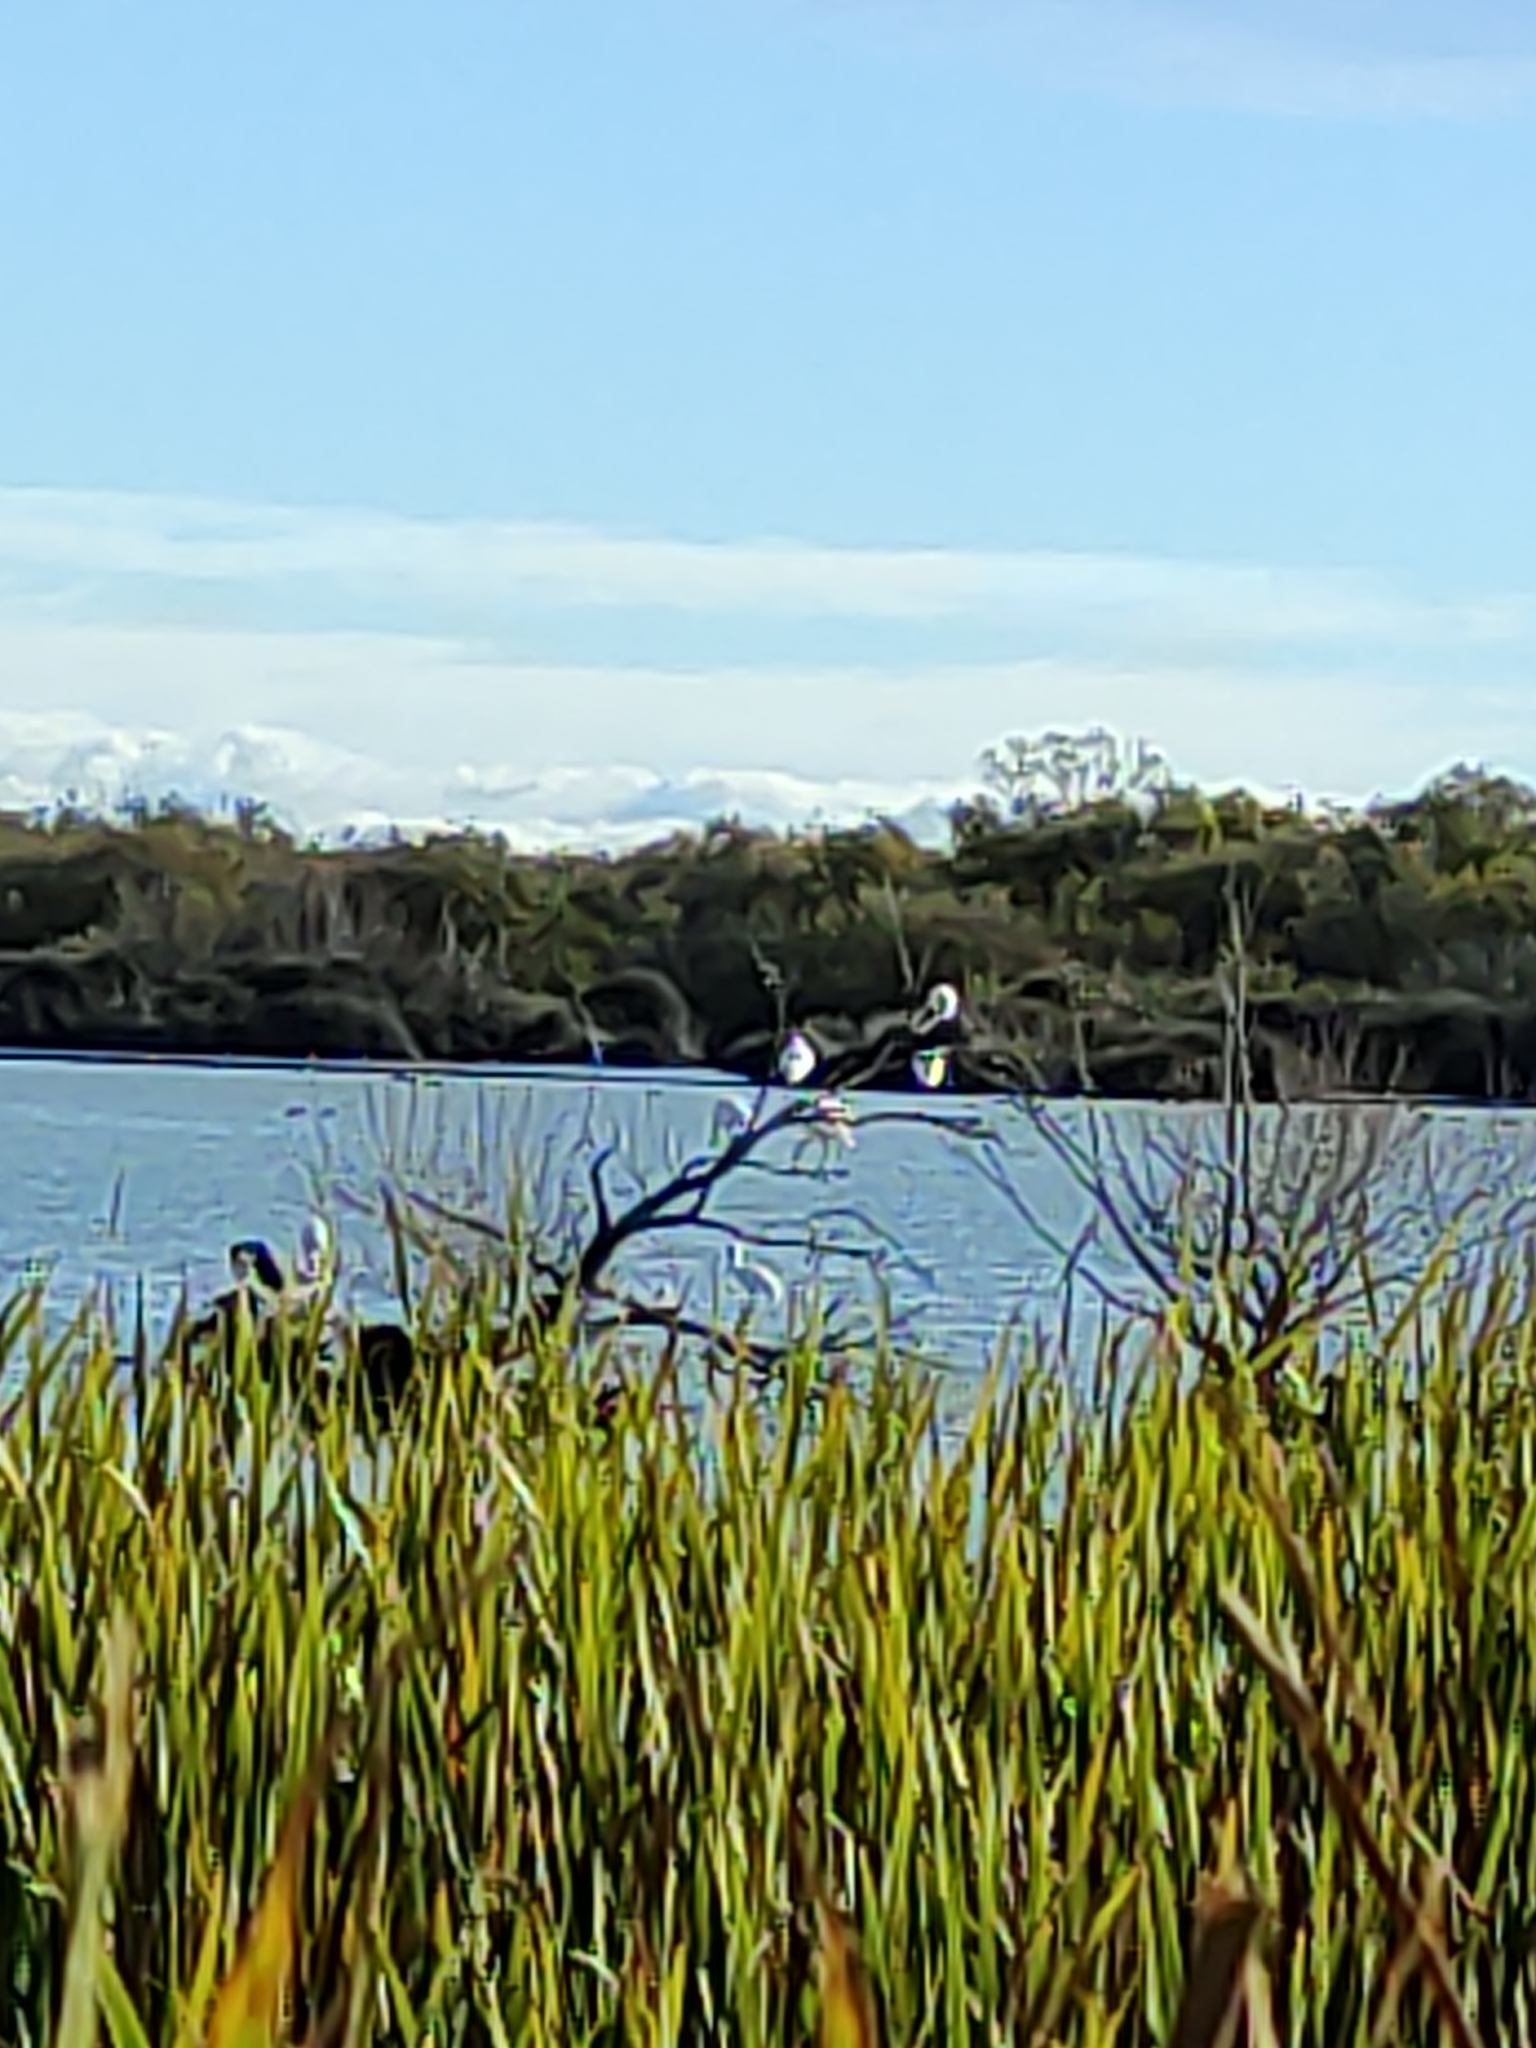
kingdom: Animalia
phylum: Chordata
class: Aves
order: Pelecaniformes
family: Threskiornithidae
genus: Platalea
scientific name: Platalea regia
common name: Royal spoonbill
